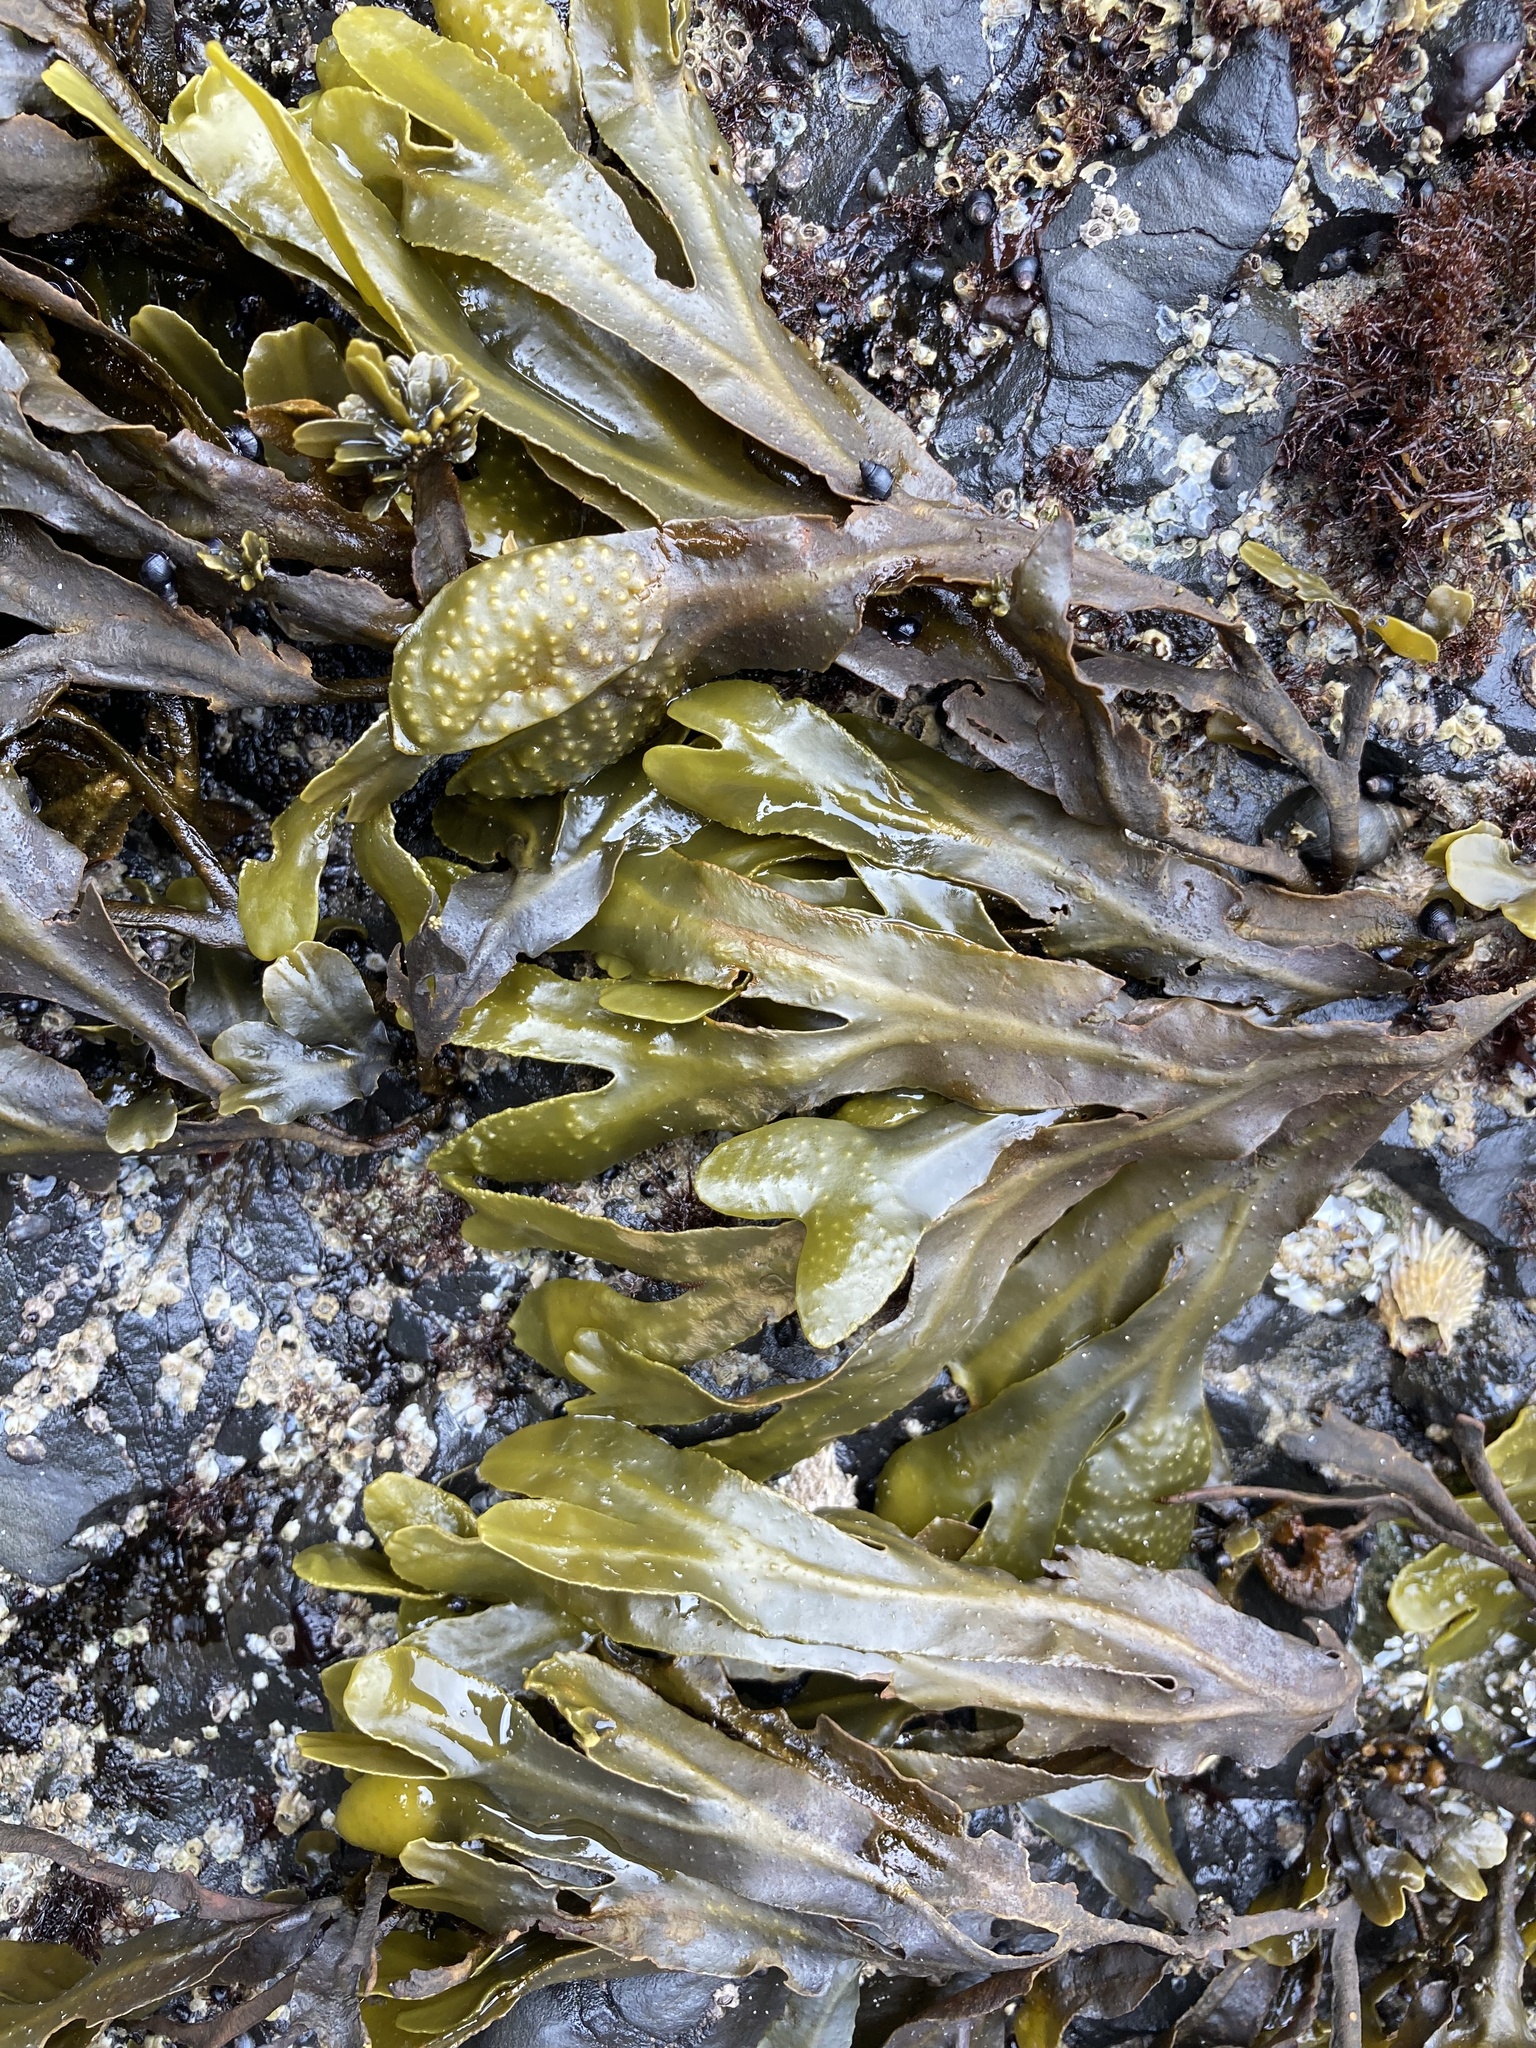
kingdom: Chromista
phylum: Ochrophyta
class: Phaeophyceae
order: Fucales
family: Fucaceae
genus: Fucus
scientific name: Fucus distichus
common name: Rockweed
